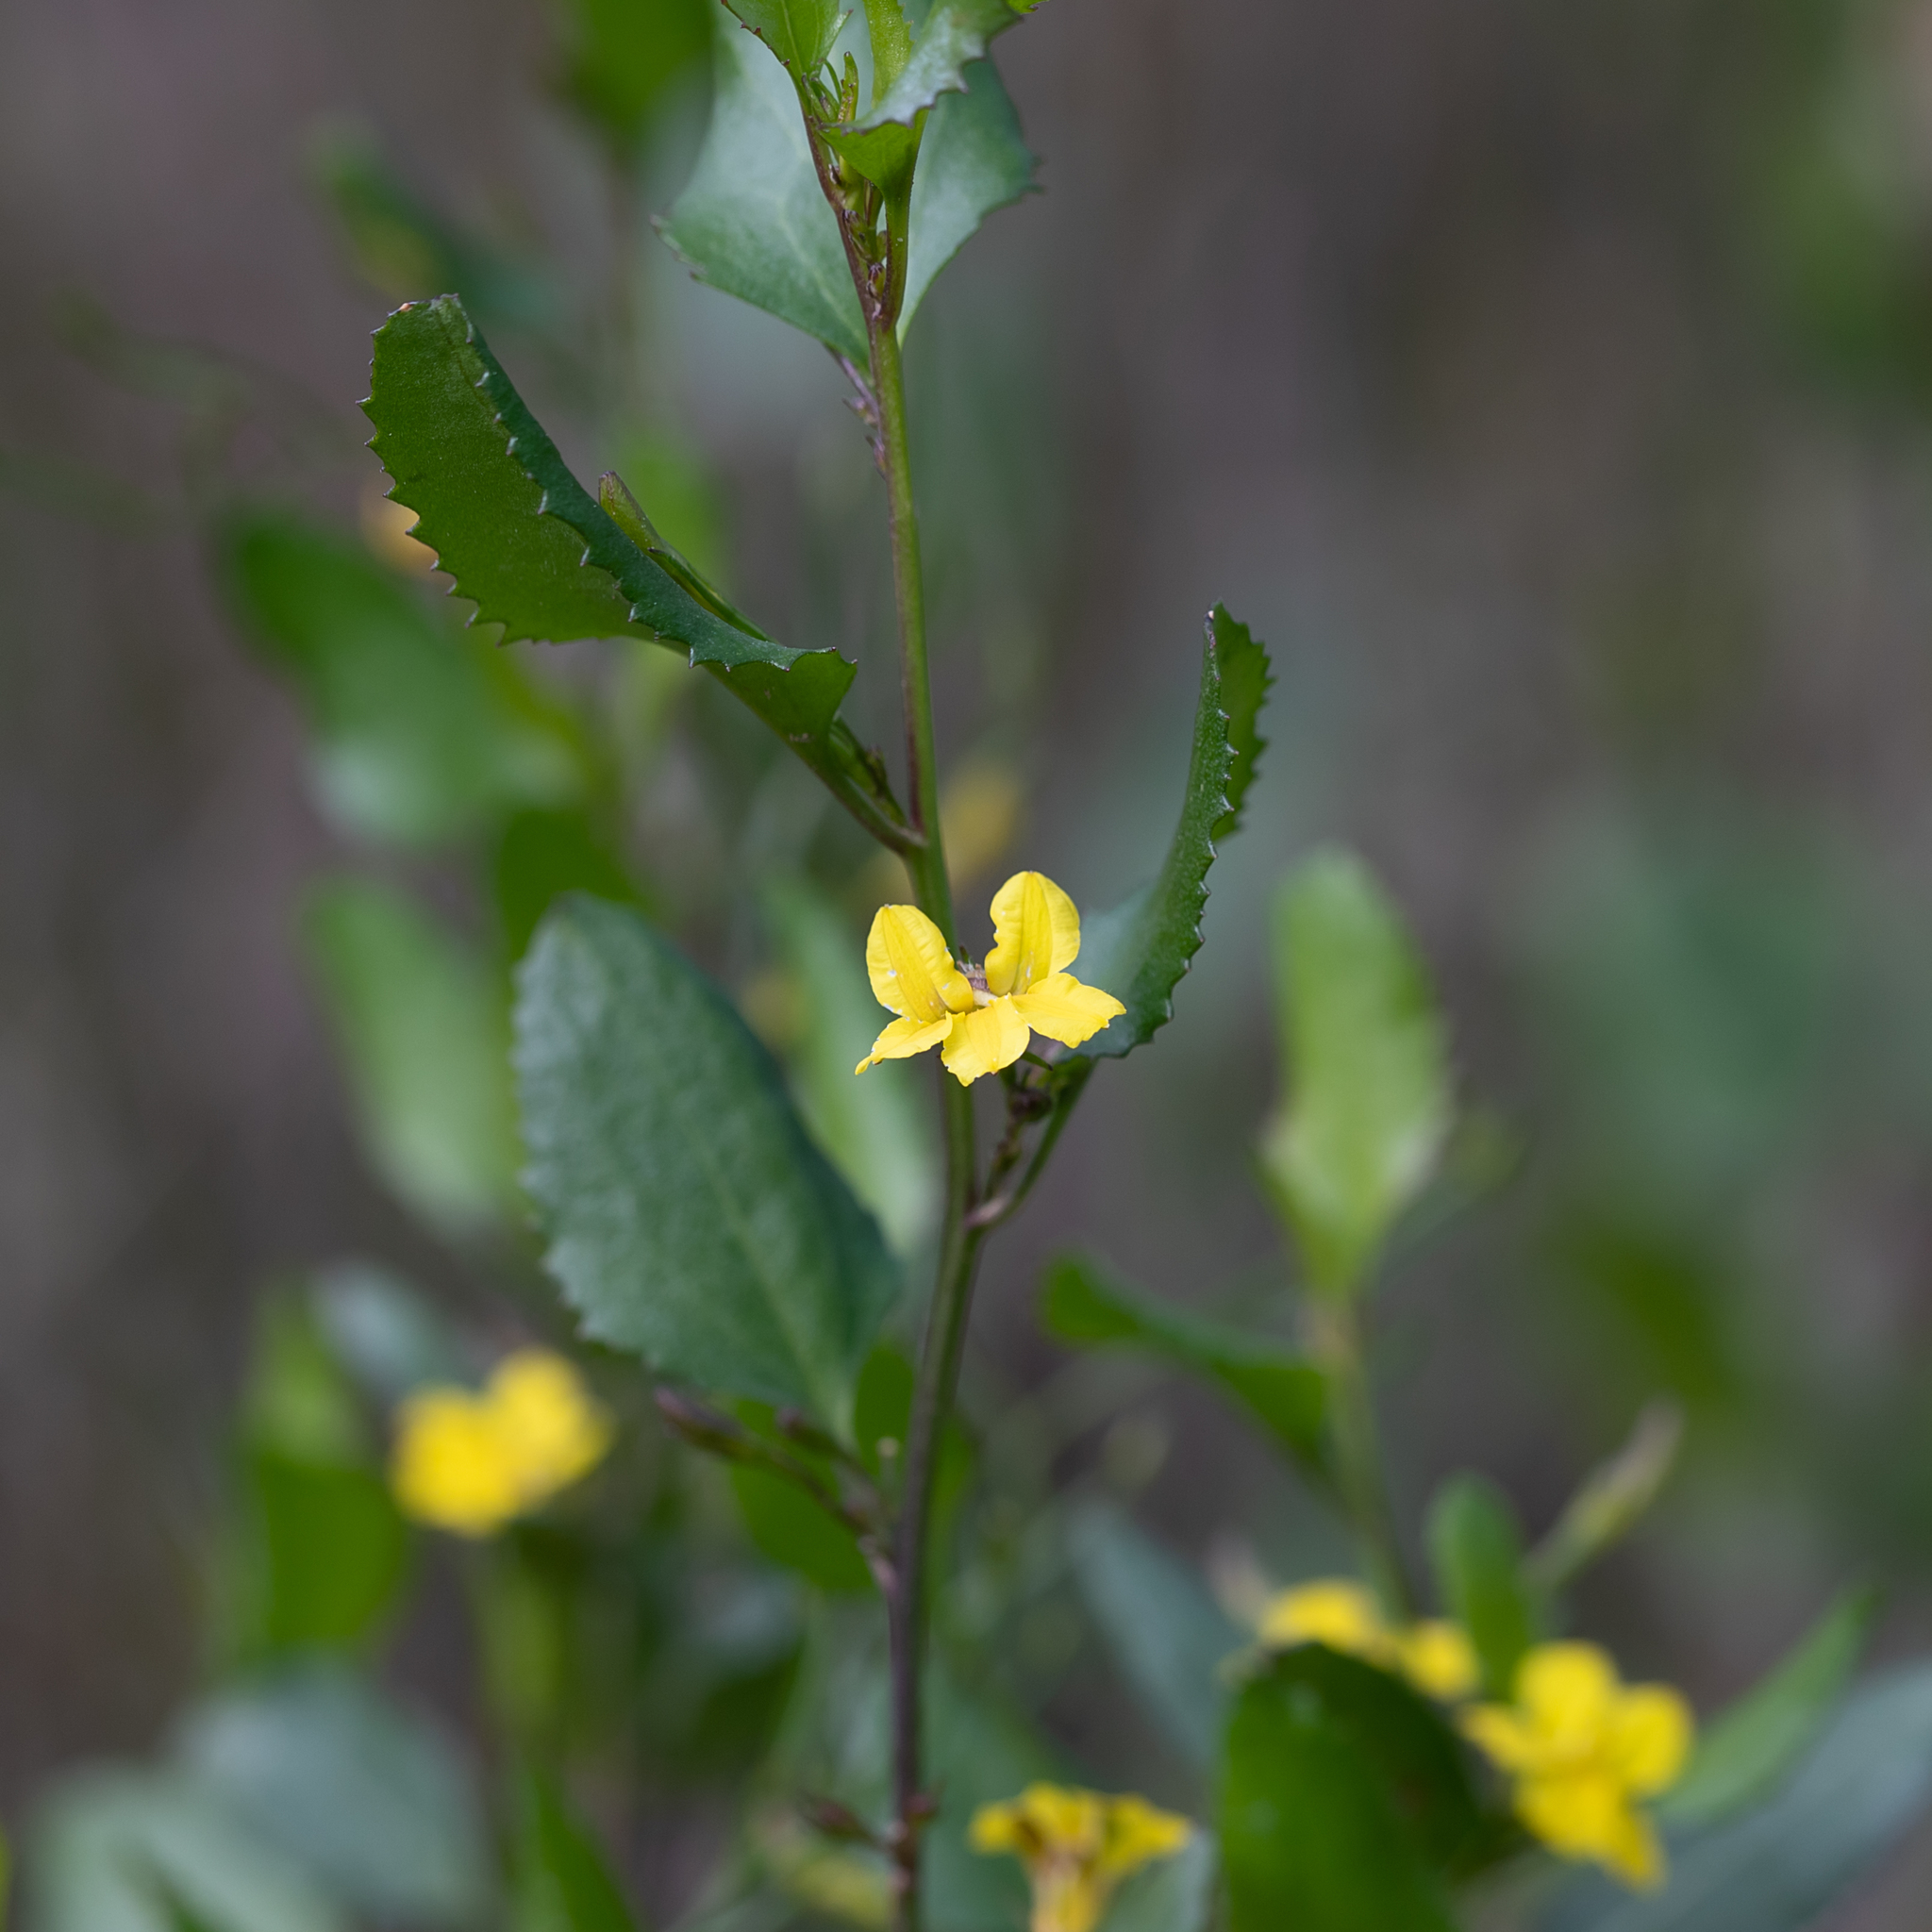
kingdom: Plantae
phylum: Tracheophyta
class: Magnoliopsida
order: Asterales
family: Goodeniaceae
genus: Goodenia
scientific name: Goodenia ovata
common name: Hop goodenia
